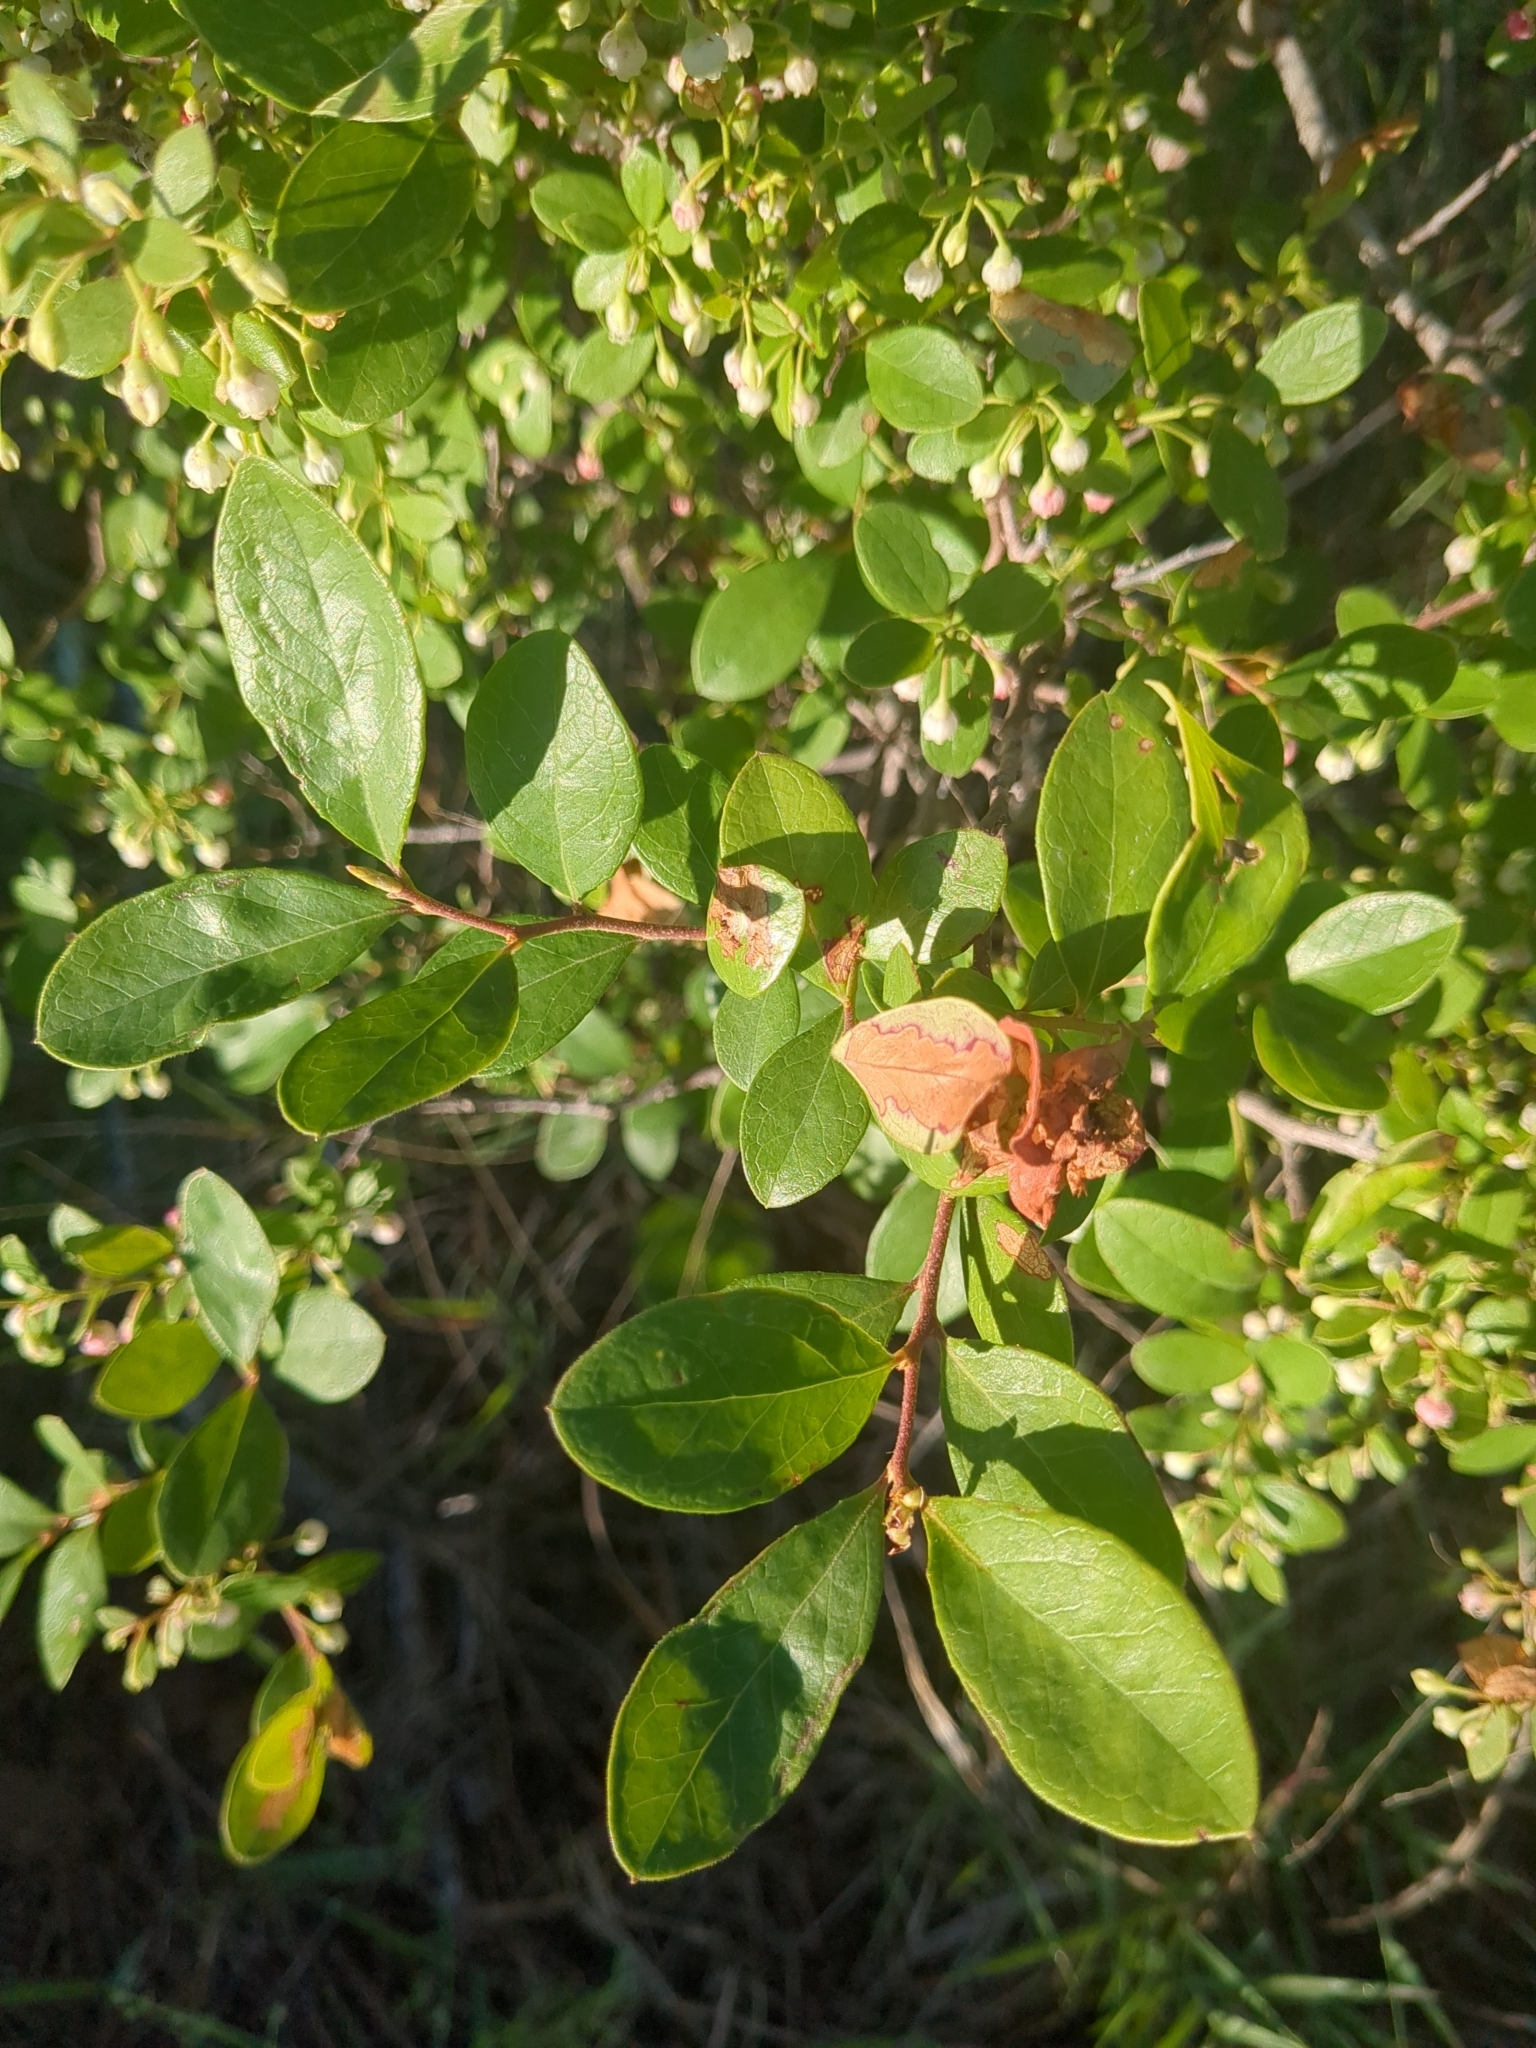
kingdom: Plantae
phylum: Tracheophyta
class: Magnoliopsida
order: Ericales
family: Ericaceae
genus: Vaccinium
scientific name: Vaccinium arboreum
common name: Farkleberry
